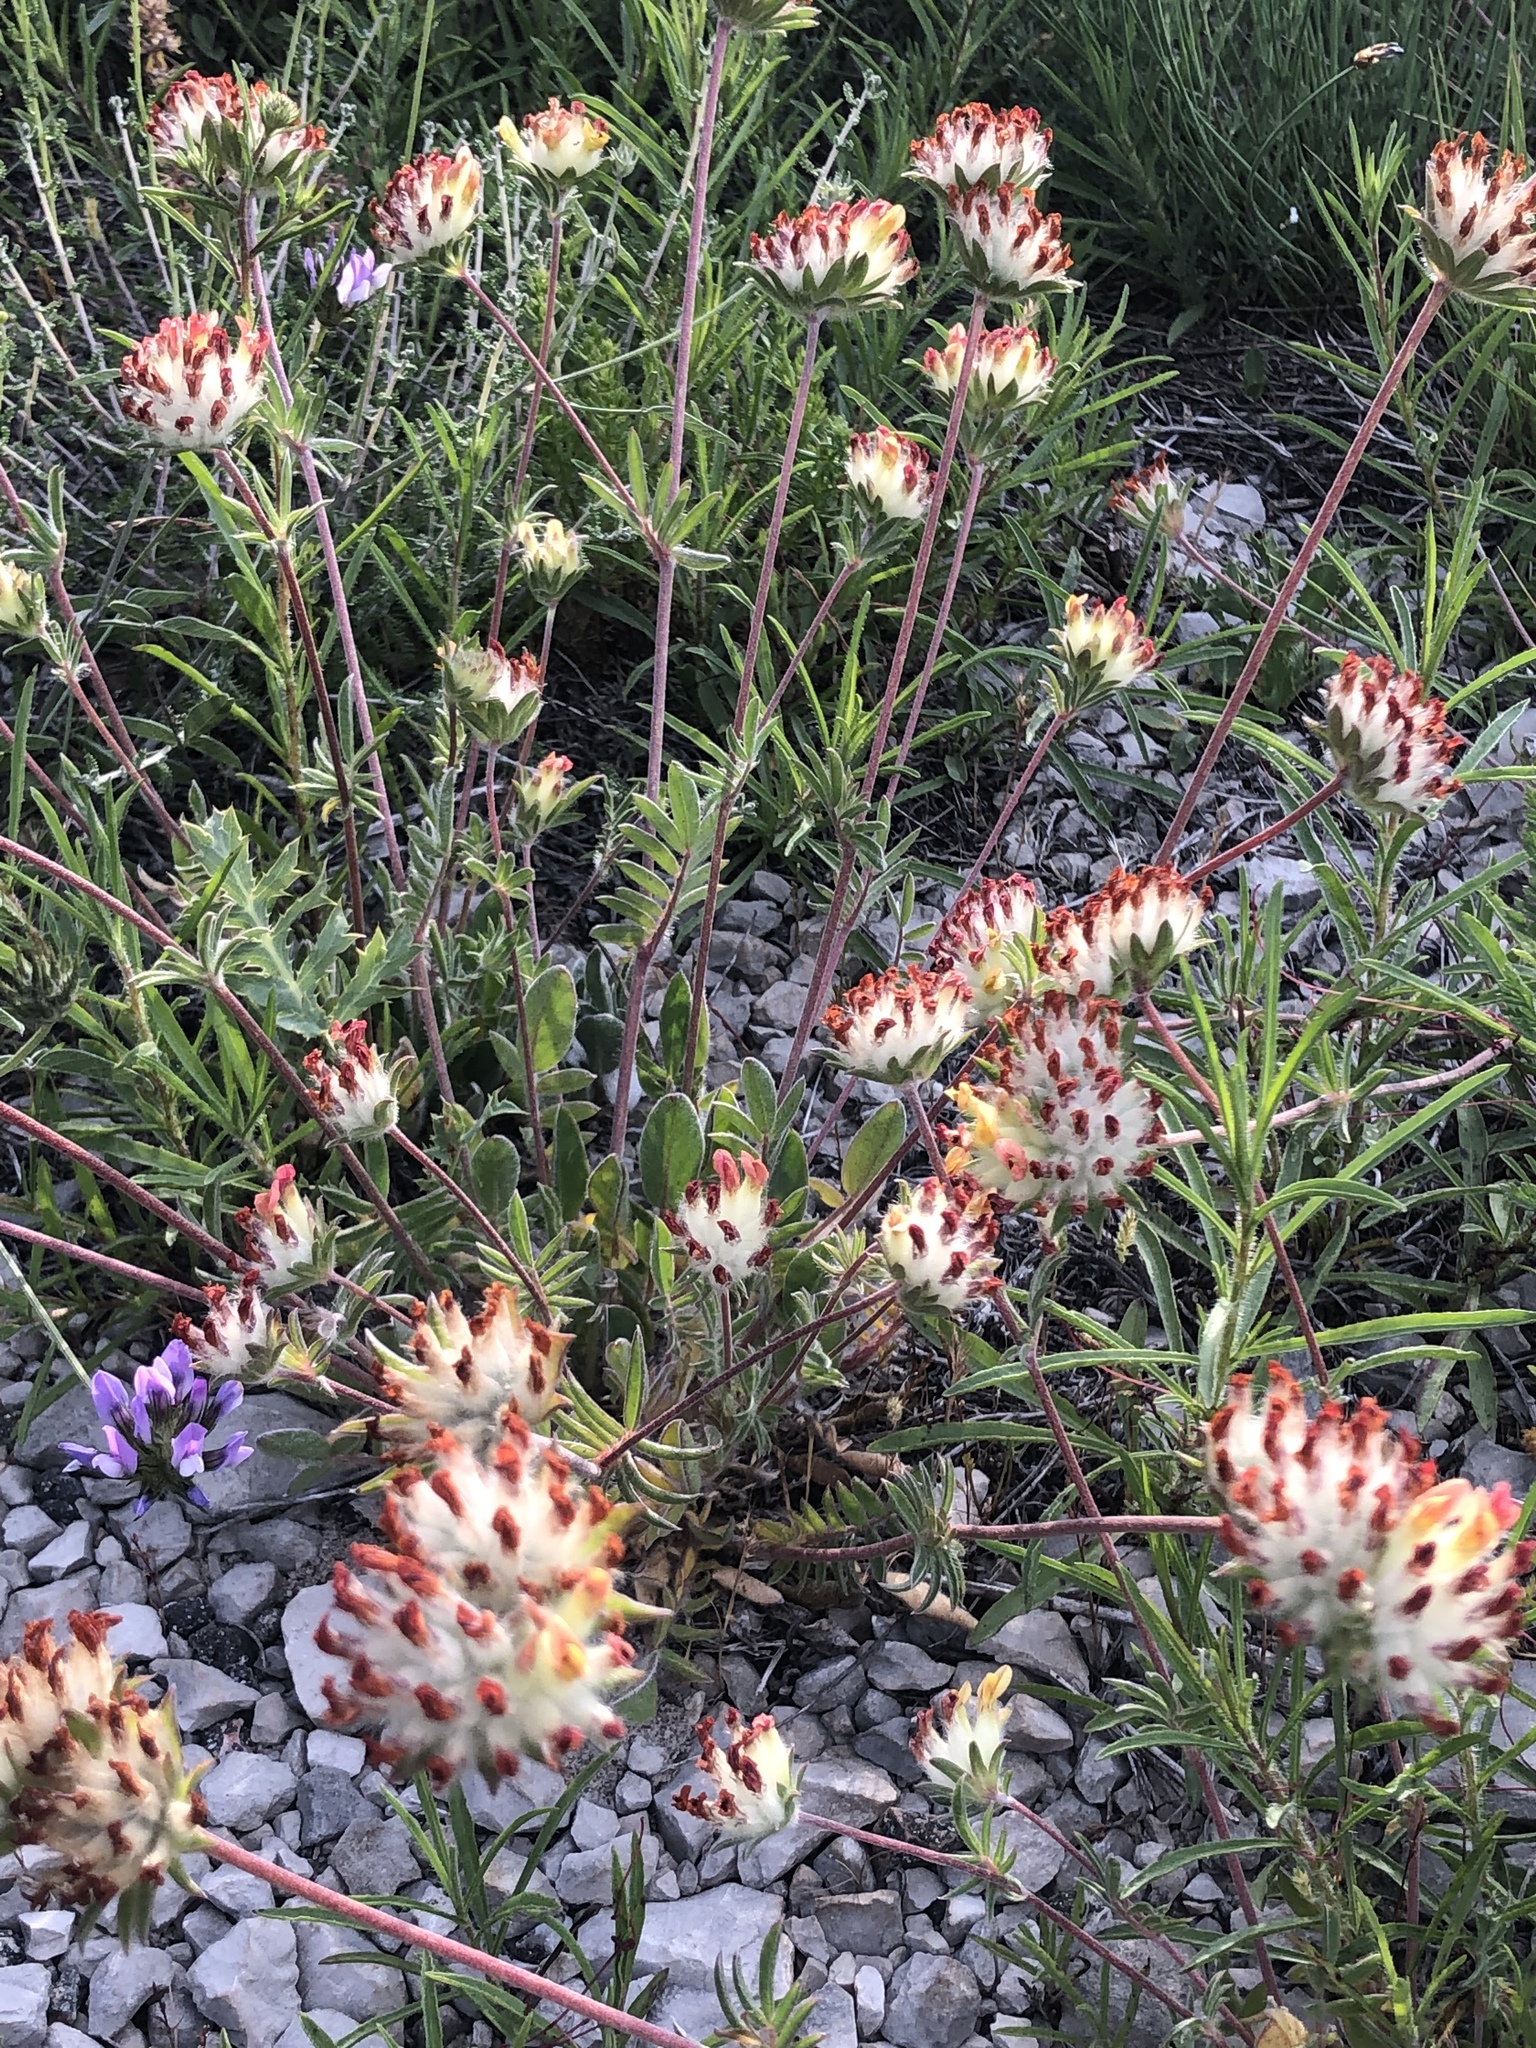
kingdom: Plantae
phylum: Tracheophyta
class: Magnoliopsida
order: Fabales
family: Fabaceae
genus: Anthyllis
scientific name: Anthyllis vulneraria
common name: Kidney vetch
